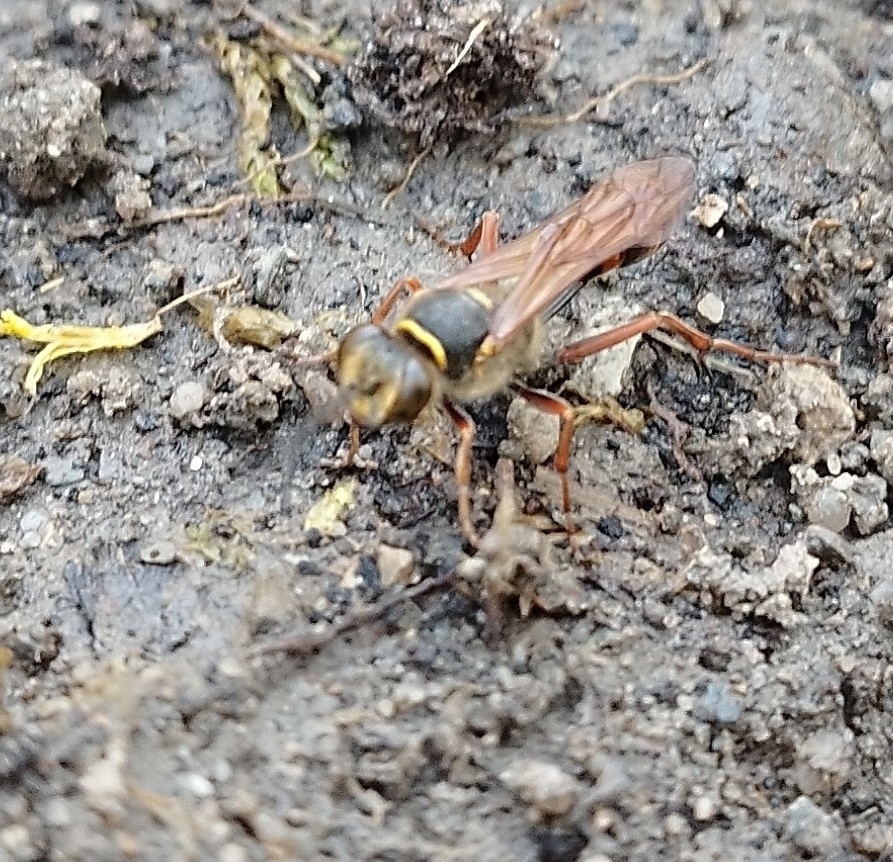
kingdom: Animalia
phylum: Arthropoda
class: Insecta
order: Hymenoptera
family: Sphecidae
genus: Sceliphron
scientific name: Sceliphron curvatum
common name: Pèlopèe
